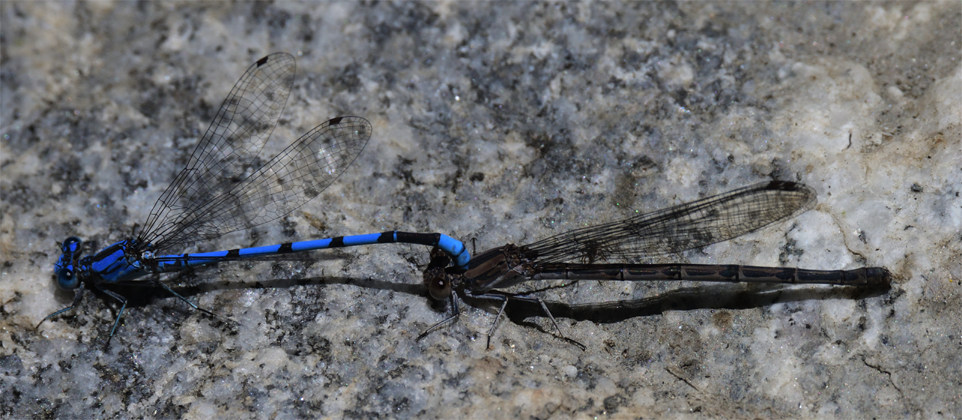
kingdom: Animalia
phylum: Arthropoda
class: Insecta
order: Odonata
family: Coenagrionidae
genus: Argia
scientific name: Argia agrioides
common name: California dancer
